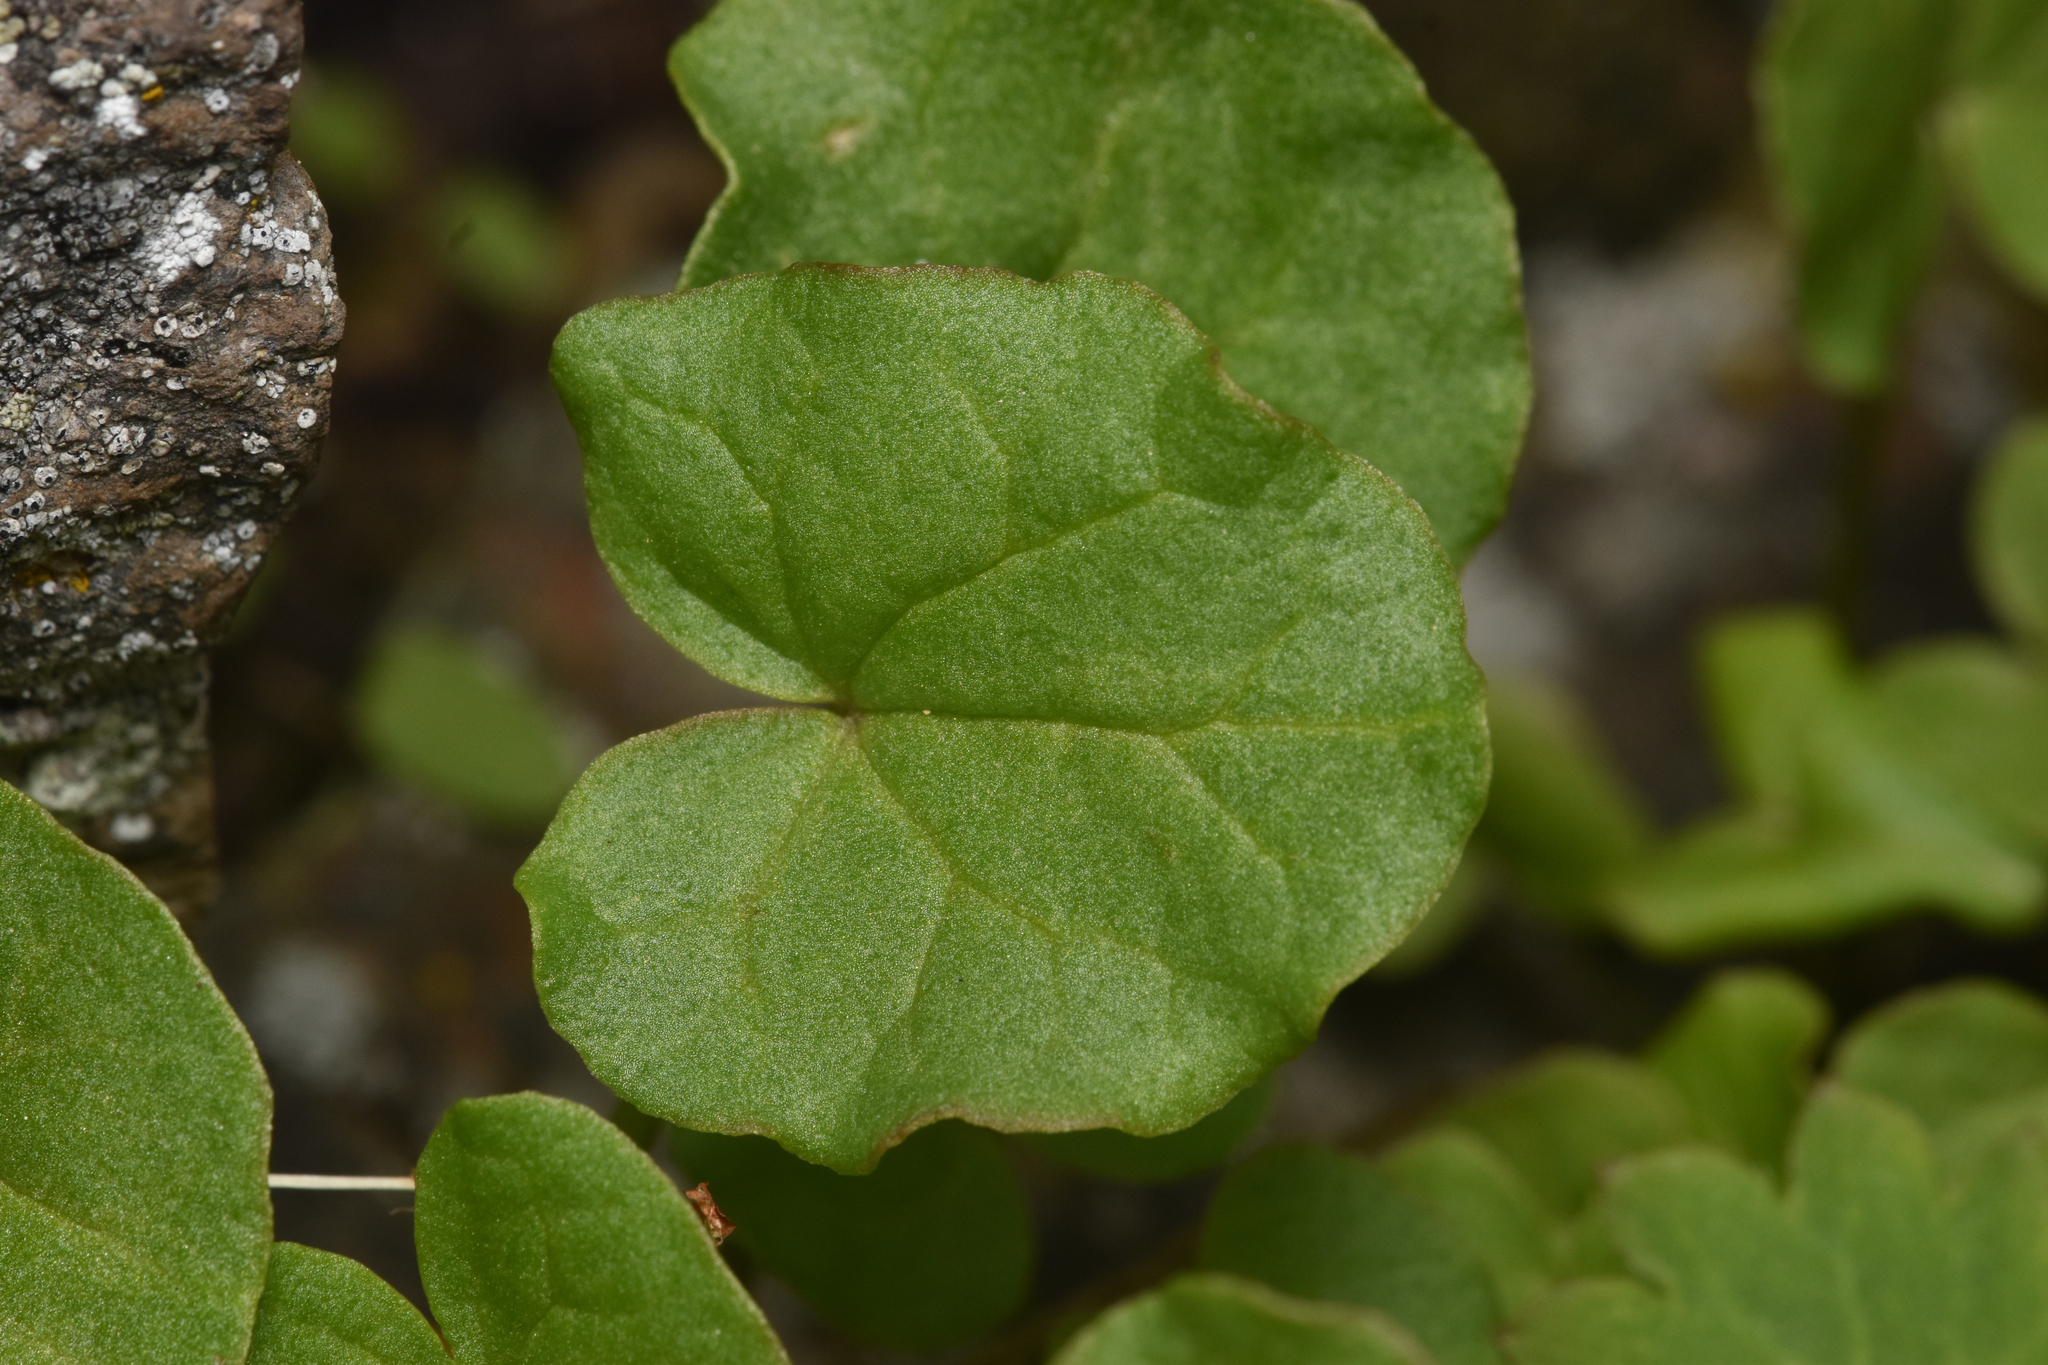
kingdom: Plantae
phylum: Tracheophyta
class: Magnoliopsida
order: Caryophyllales
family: Polygonaceae
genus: Oxyria
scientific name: Oxyria digyna
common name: Alpine mountain-sorrel
